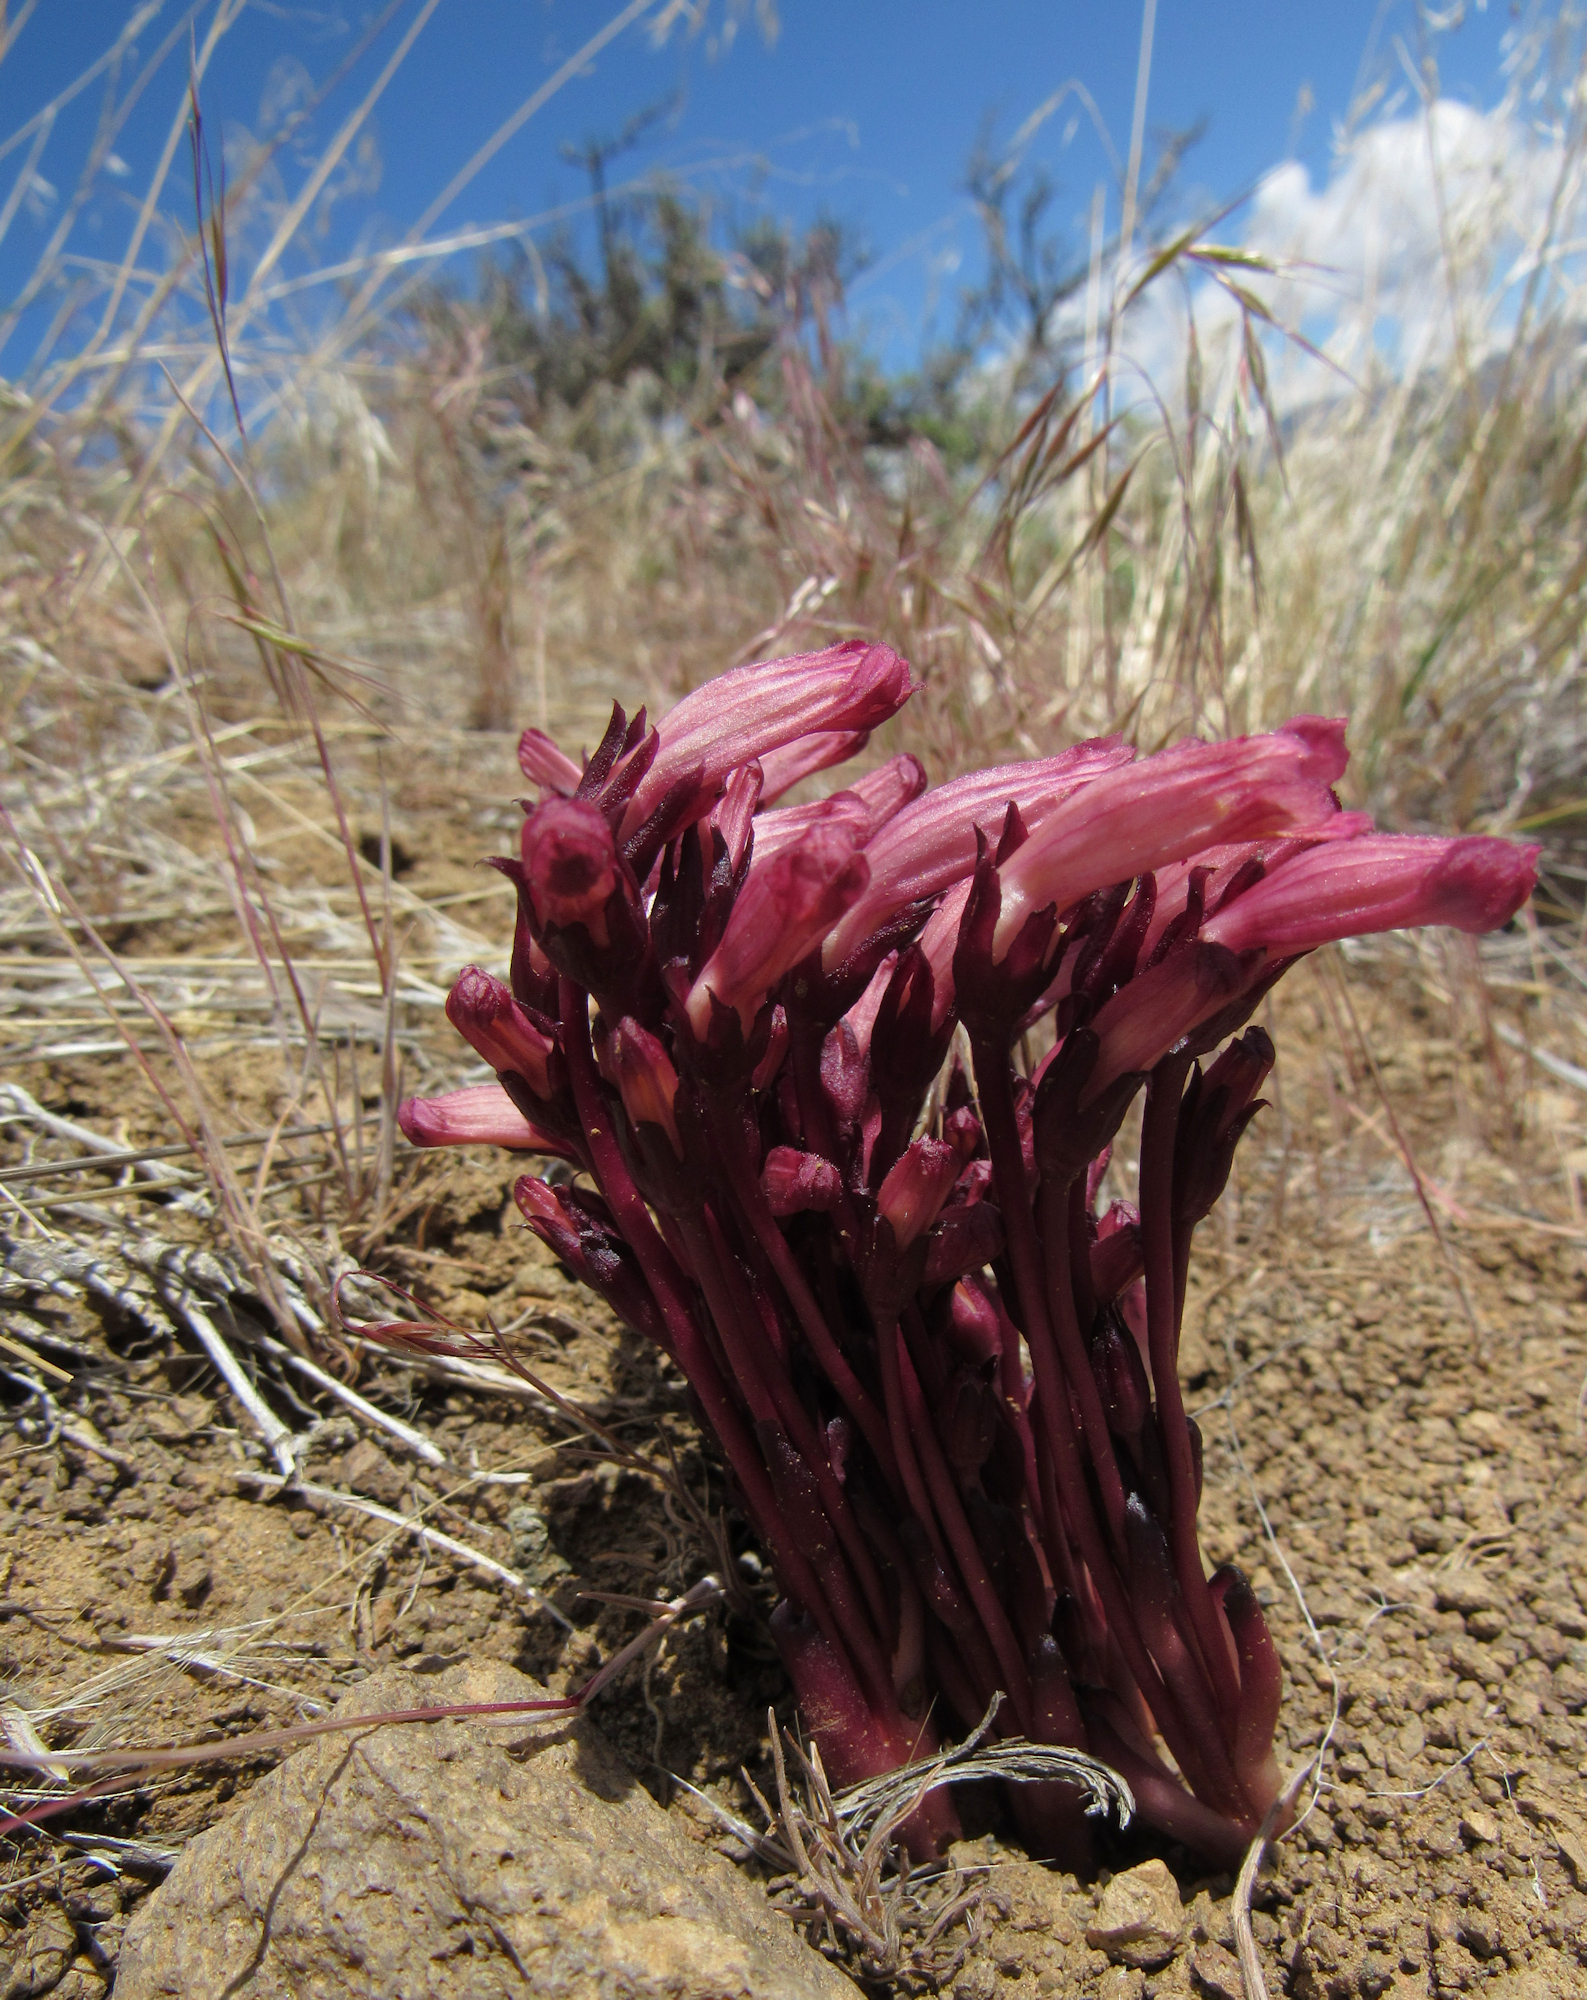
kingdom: Plantae
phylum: Tracheophyta
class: Magnoliopsida
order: Lamiales
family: Orobanchaceae
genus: Aphyllon
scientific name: Aphyllon fasciculatum
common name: Clustered broomrape
